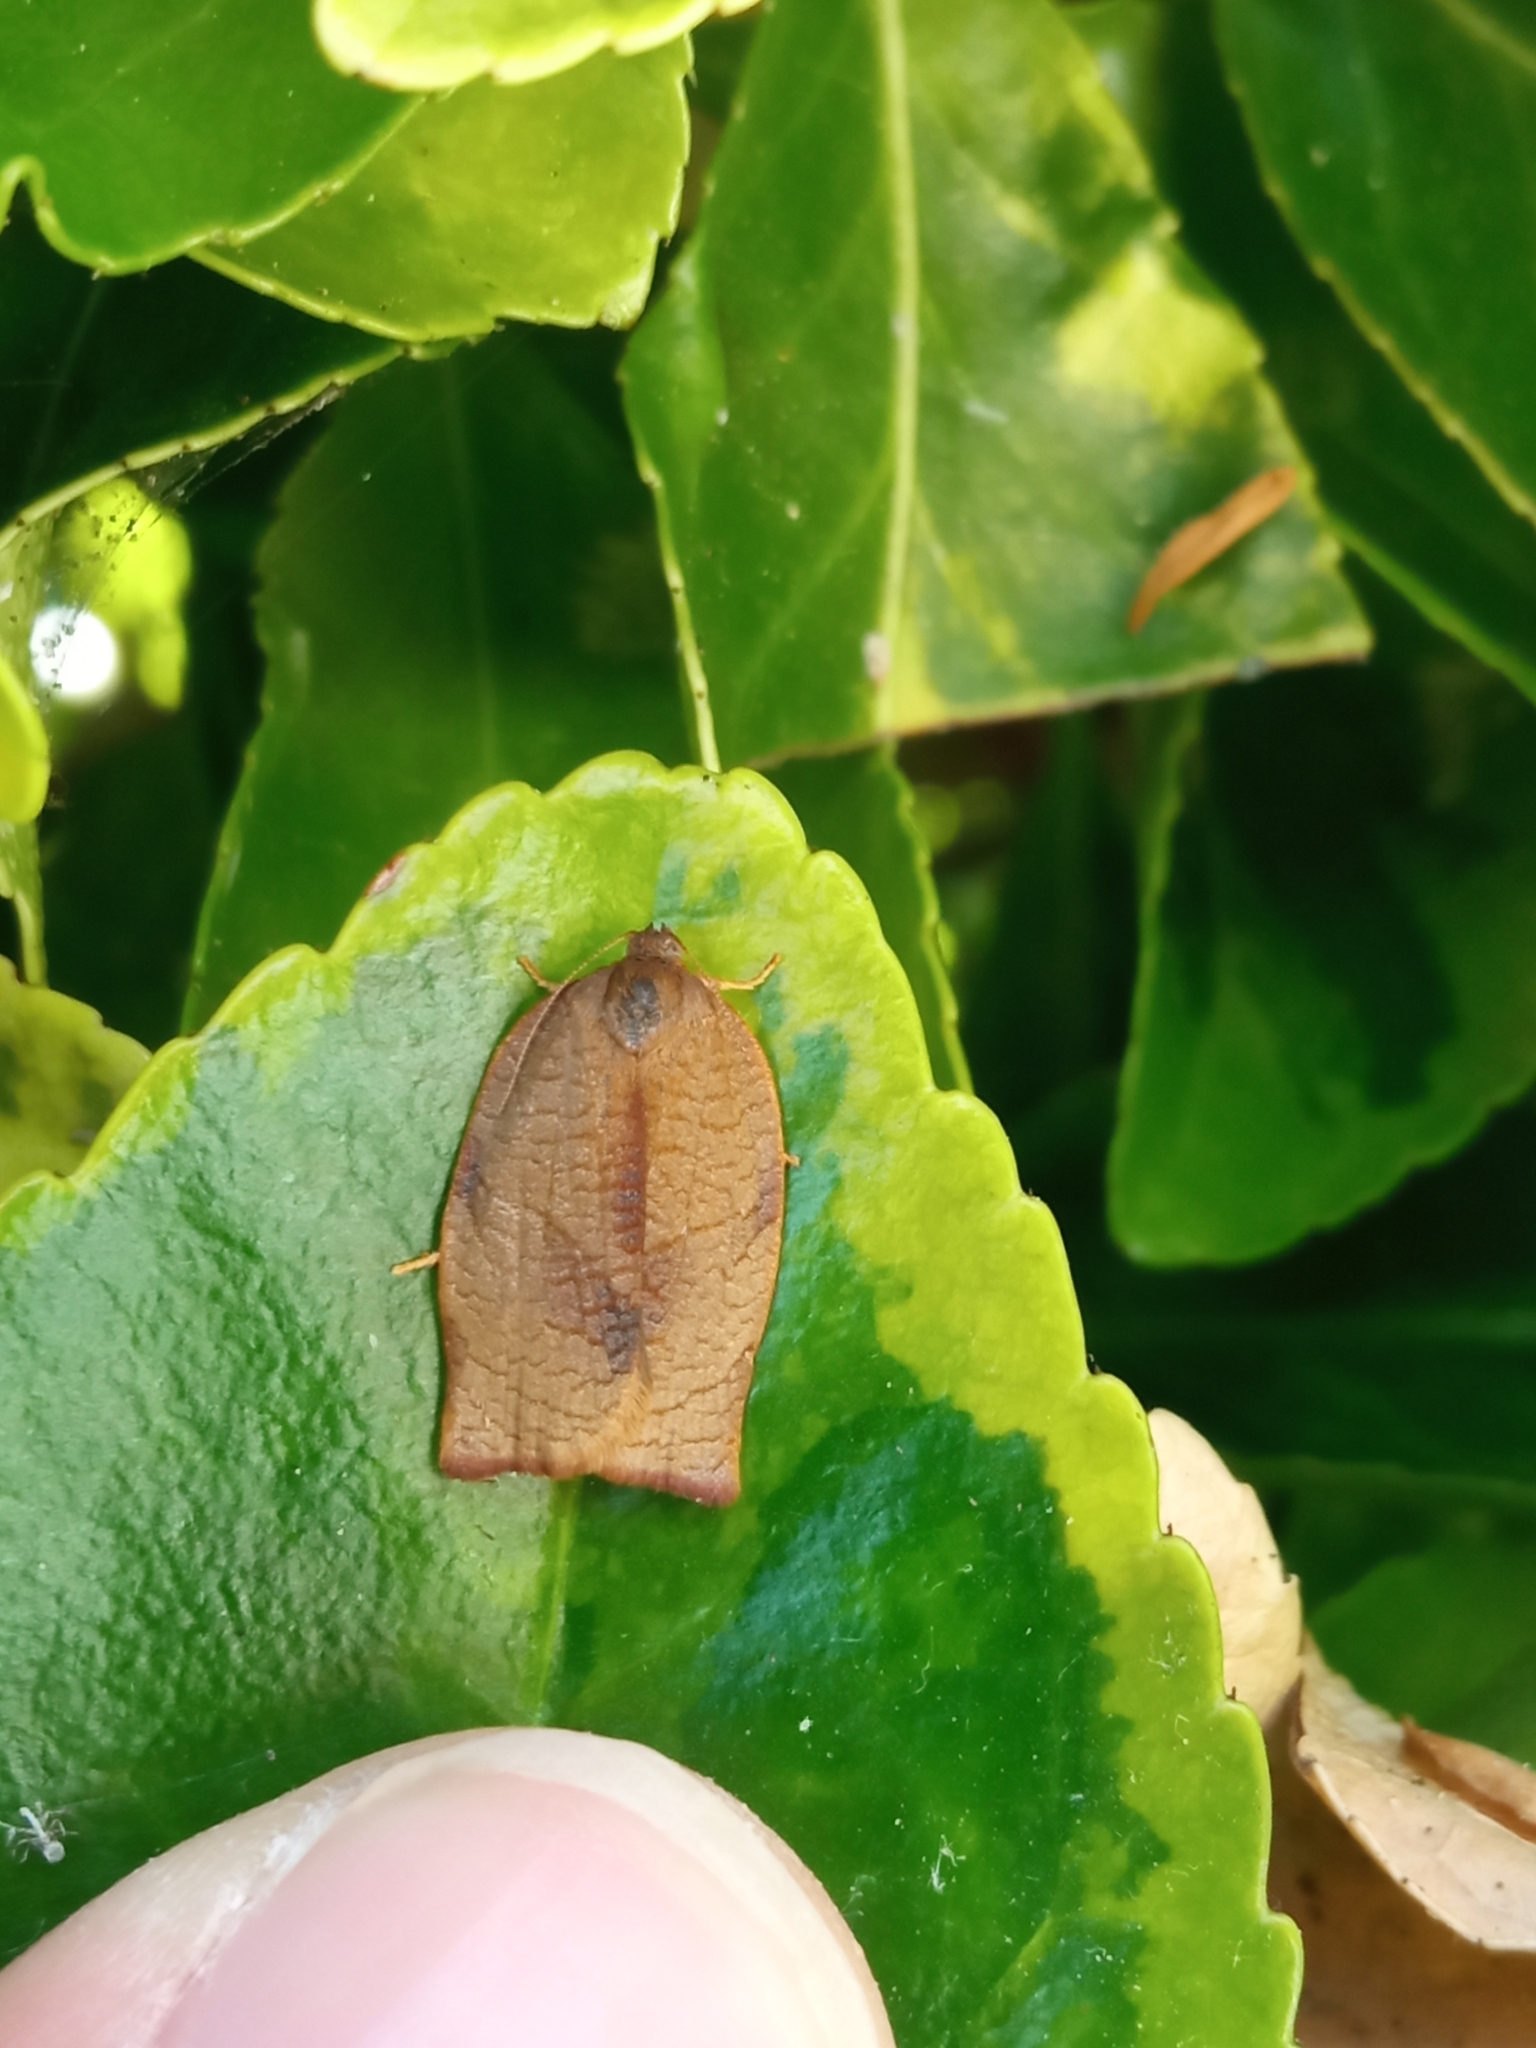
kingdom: Animalia
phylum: Arthropoda
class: Insecta
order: Lepidoptera
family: Tortricidae
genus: Cacoecimorpha
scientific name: Cacoecimorpha pronubana
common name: Carnation tortrix
